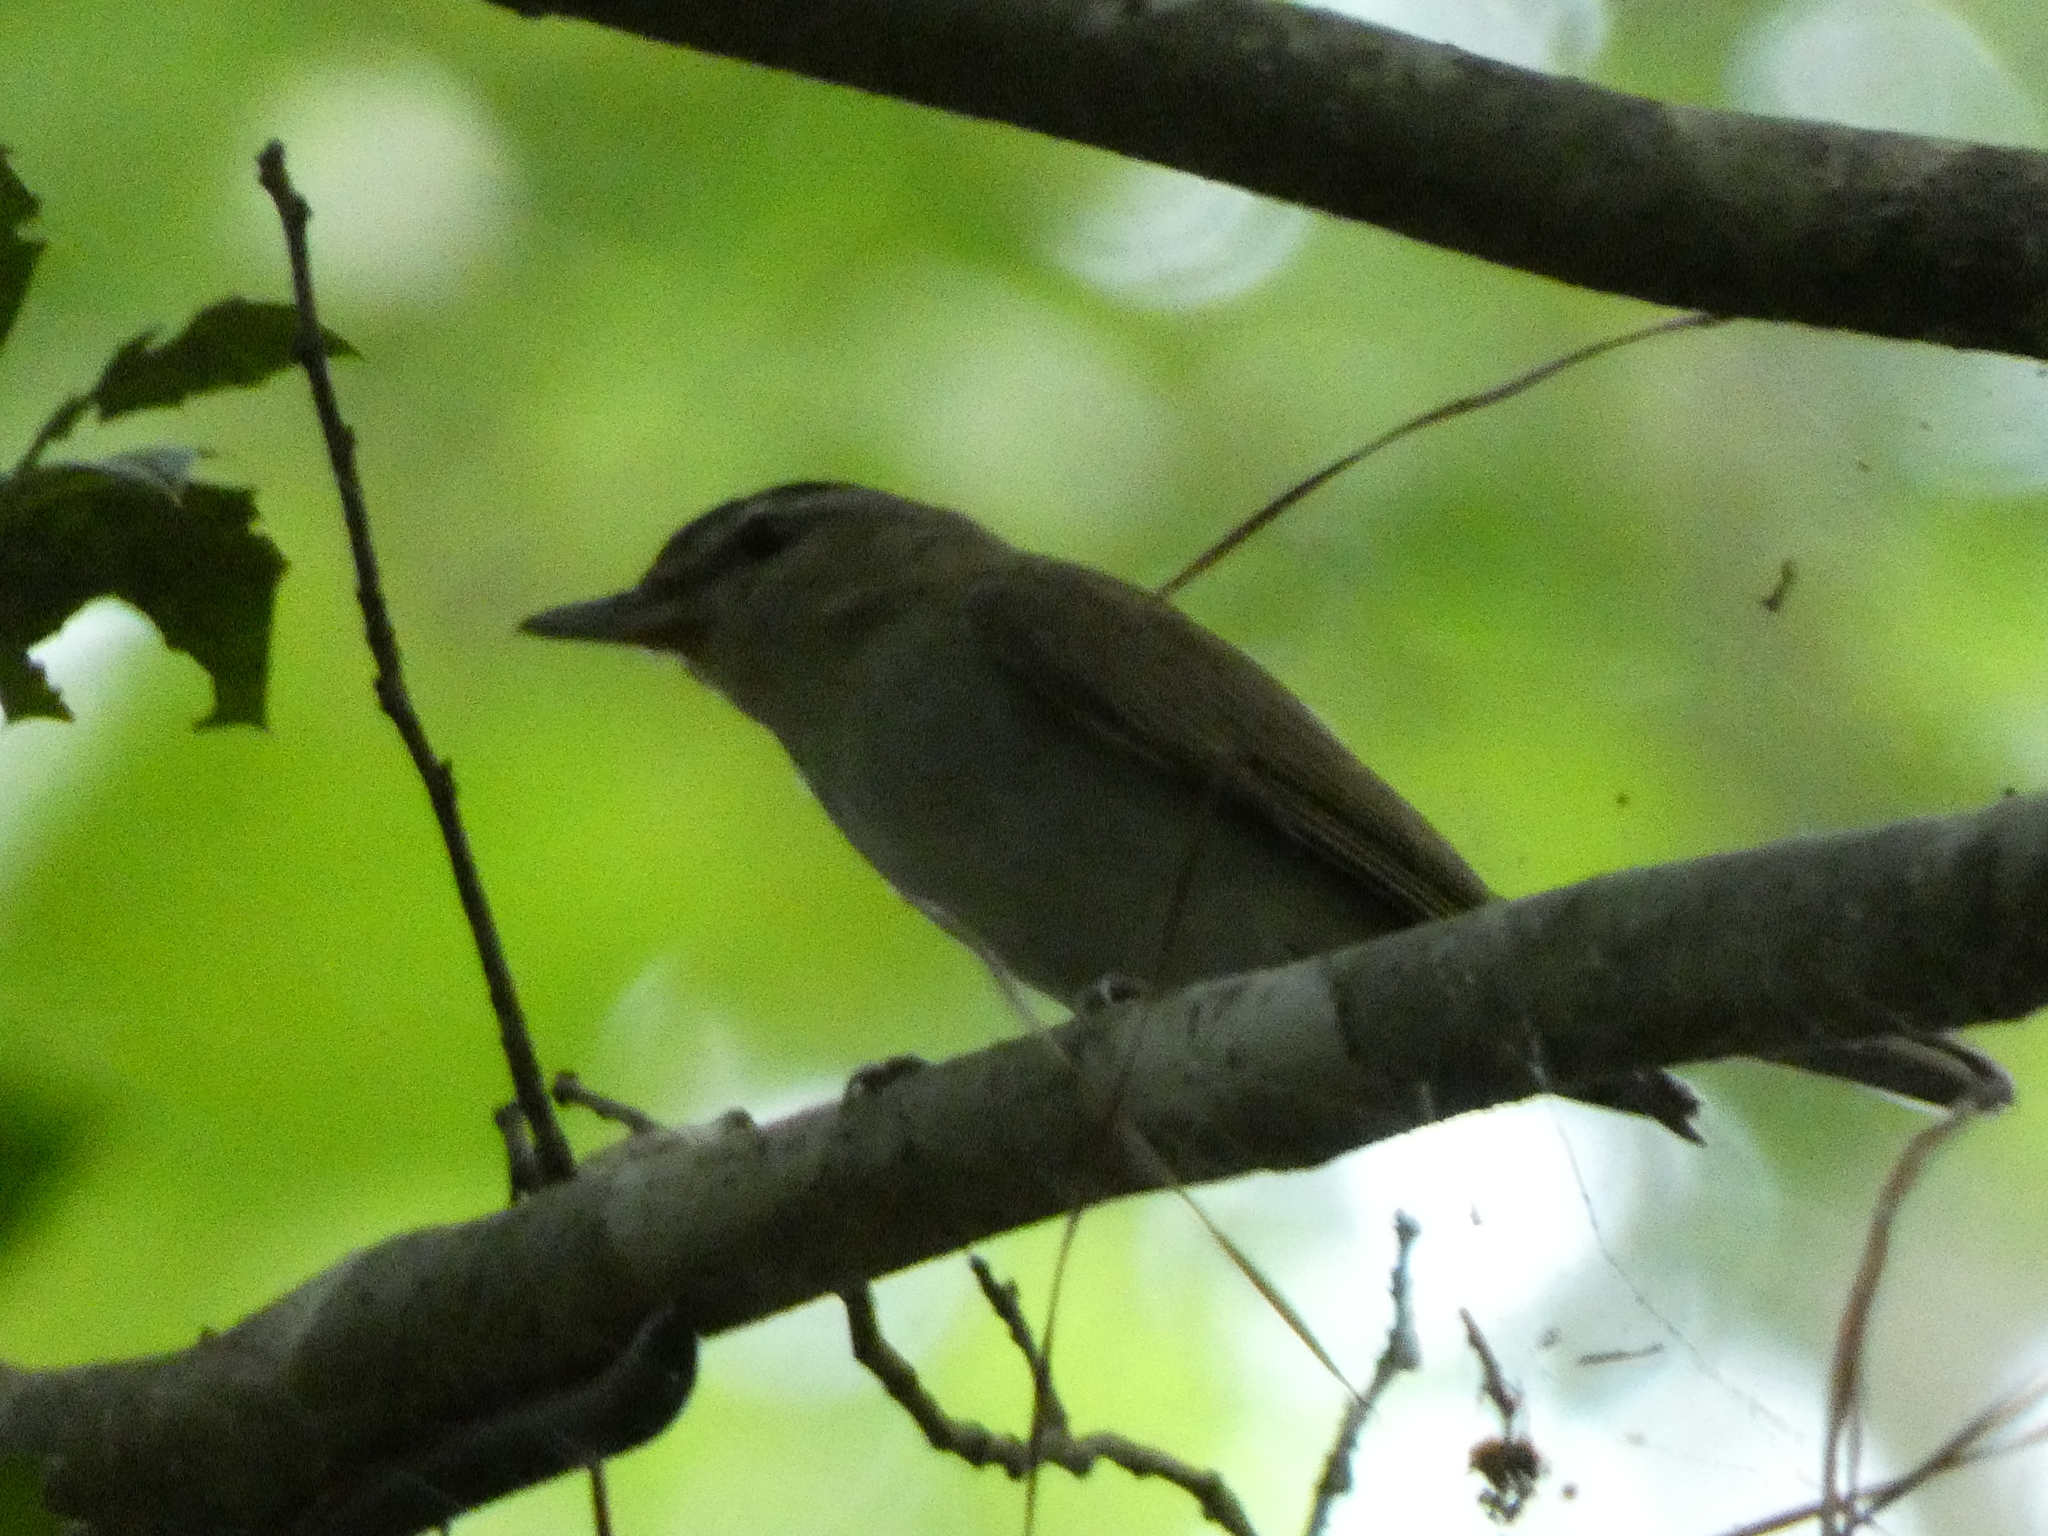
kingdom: Animalia
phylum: Chordata
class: Aves
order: Passeriformes
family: Vireonidae
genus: Vireo
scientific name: Vireo olivaceus
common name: Red-eyed vireo
